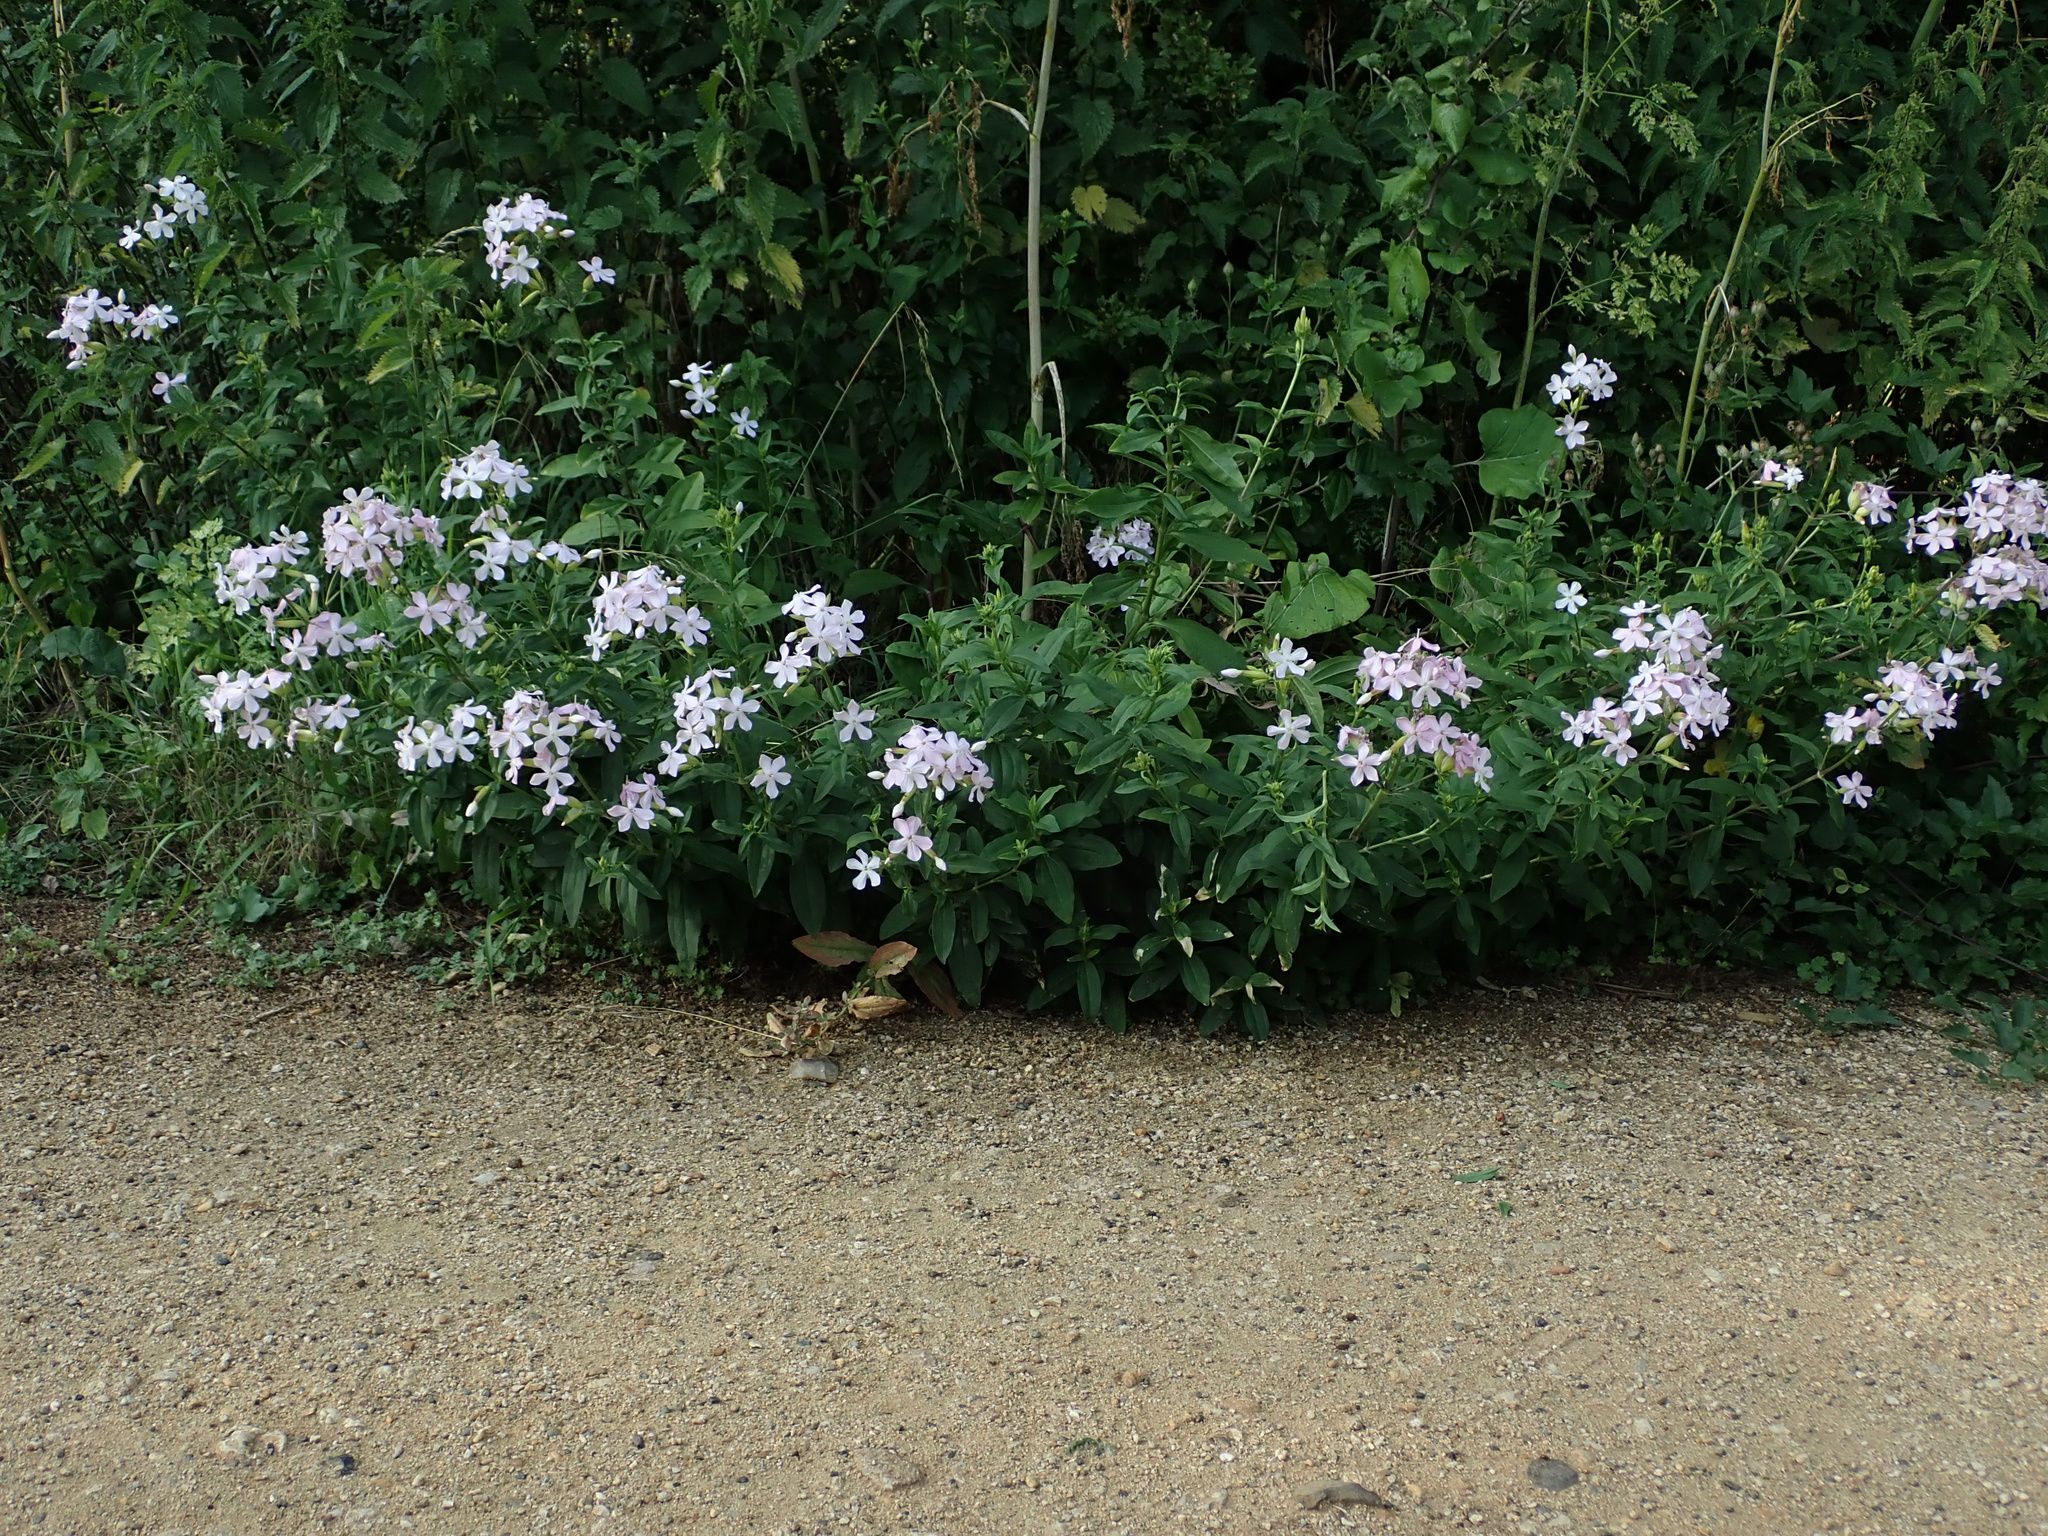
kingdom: Plantae
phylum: Tracheophyta
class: Magnoliopsida
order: Caryophyllales
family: Caryophyllaceae
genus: Saponaria
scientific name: Saponaria officinalis
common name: Soapwort
